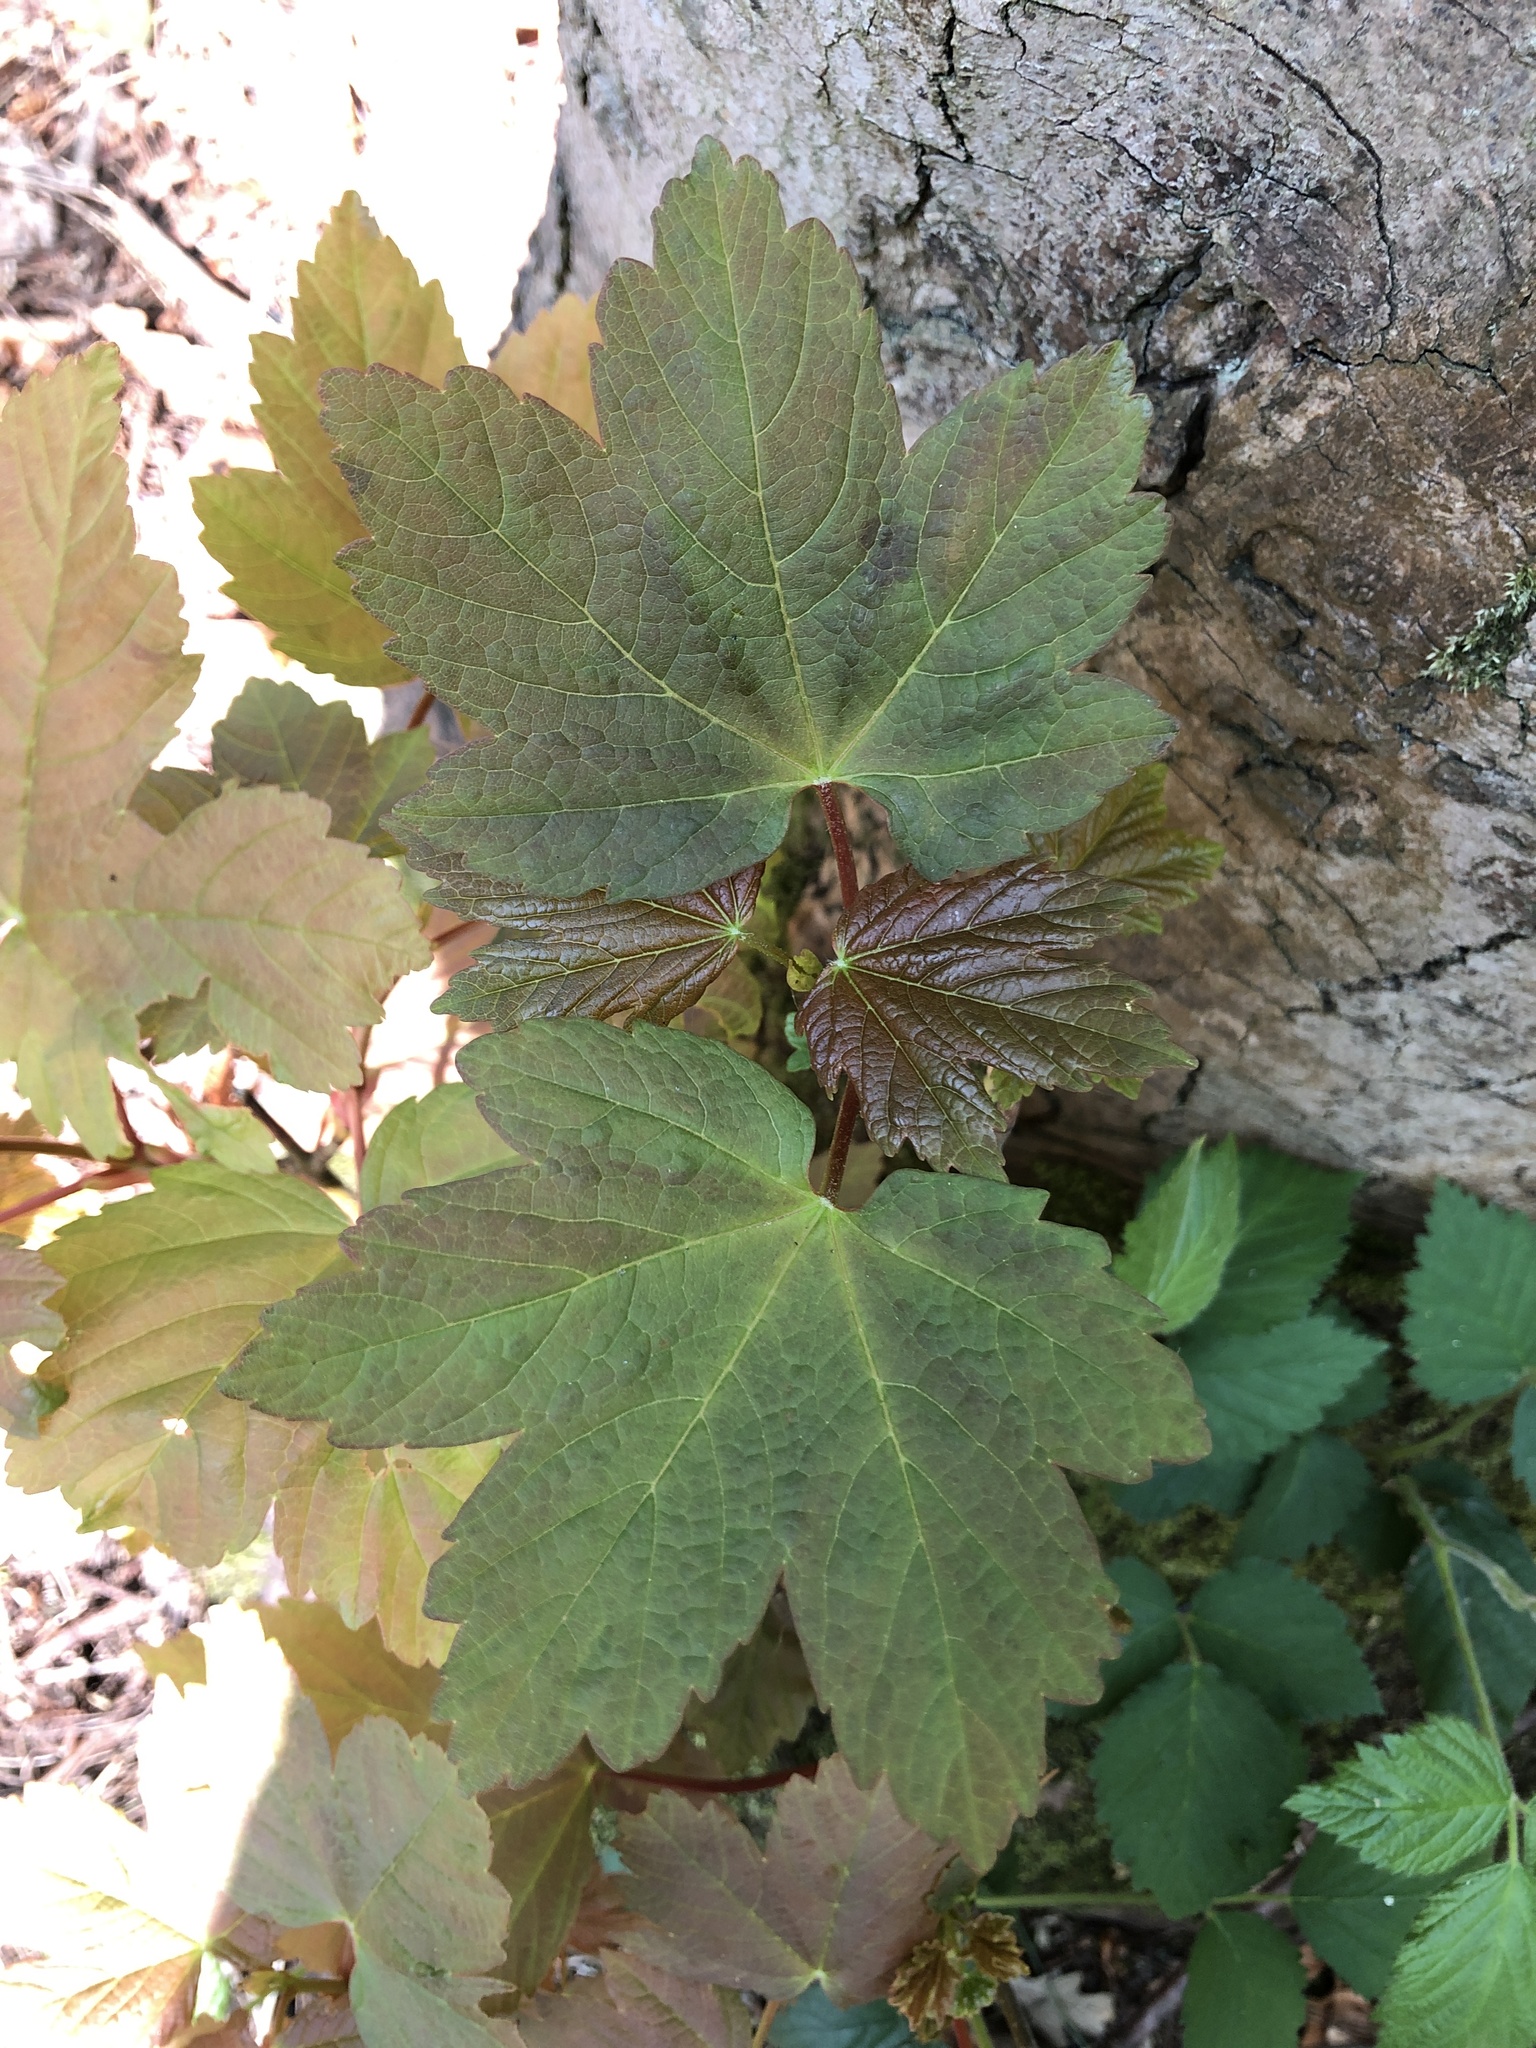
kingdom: Plantae
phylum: Tracheophyta
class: Magnoliopsida
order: Sapindales
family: Sapindaceae
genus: Acer
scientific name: Acer pseudoplatanus
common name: Sycamore
